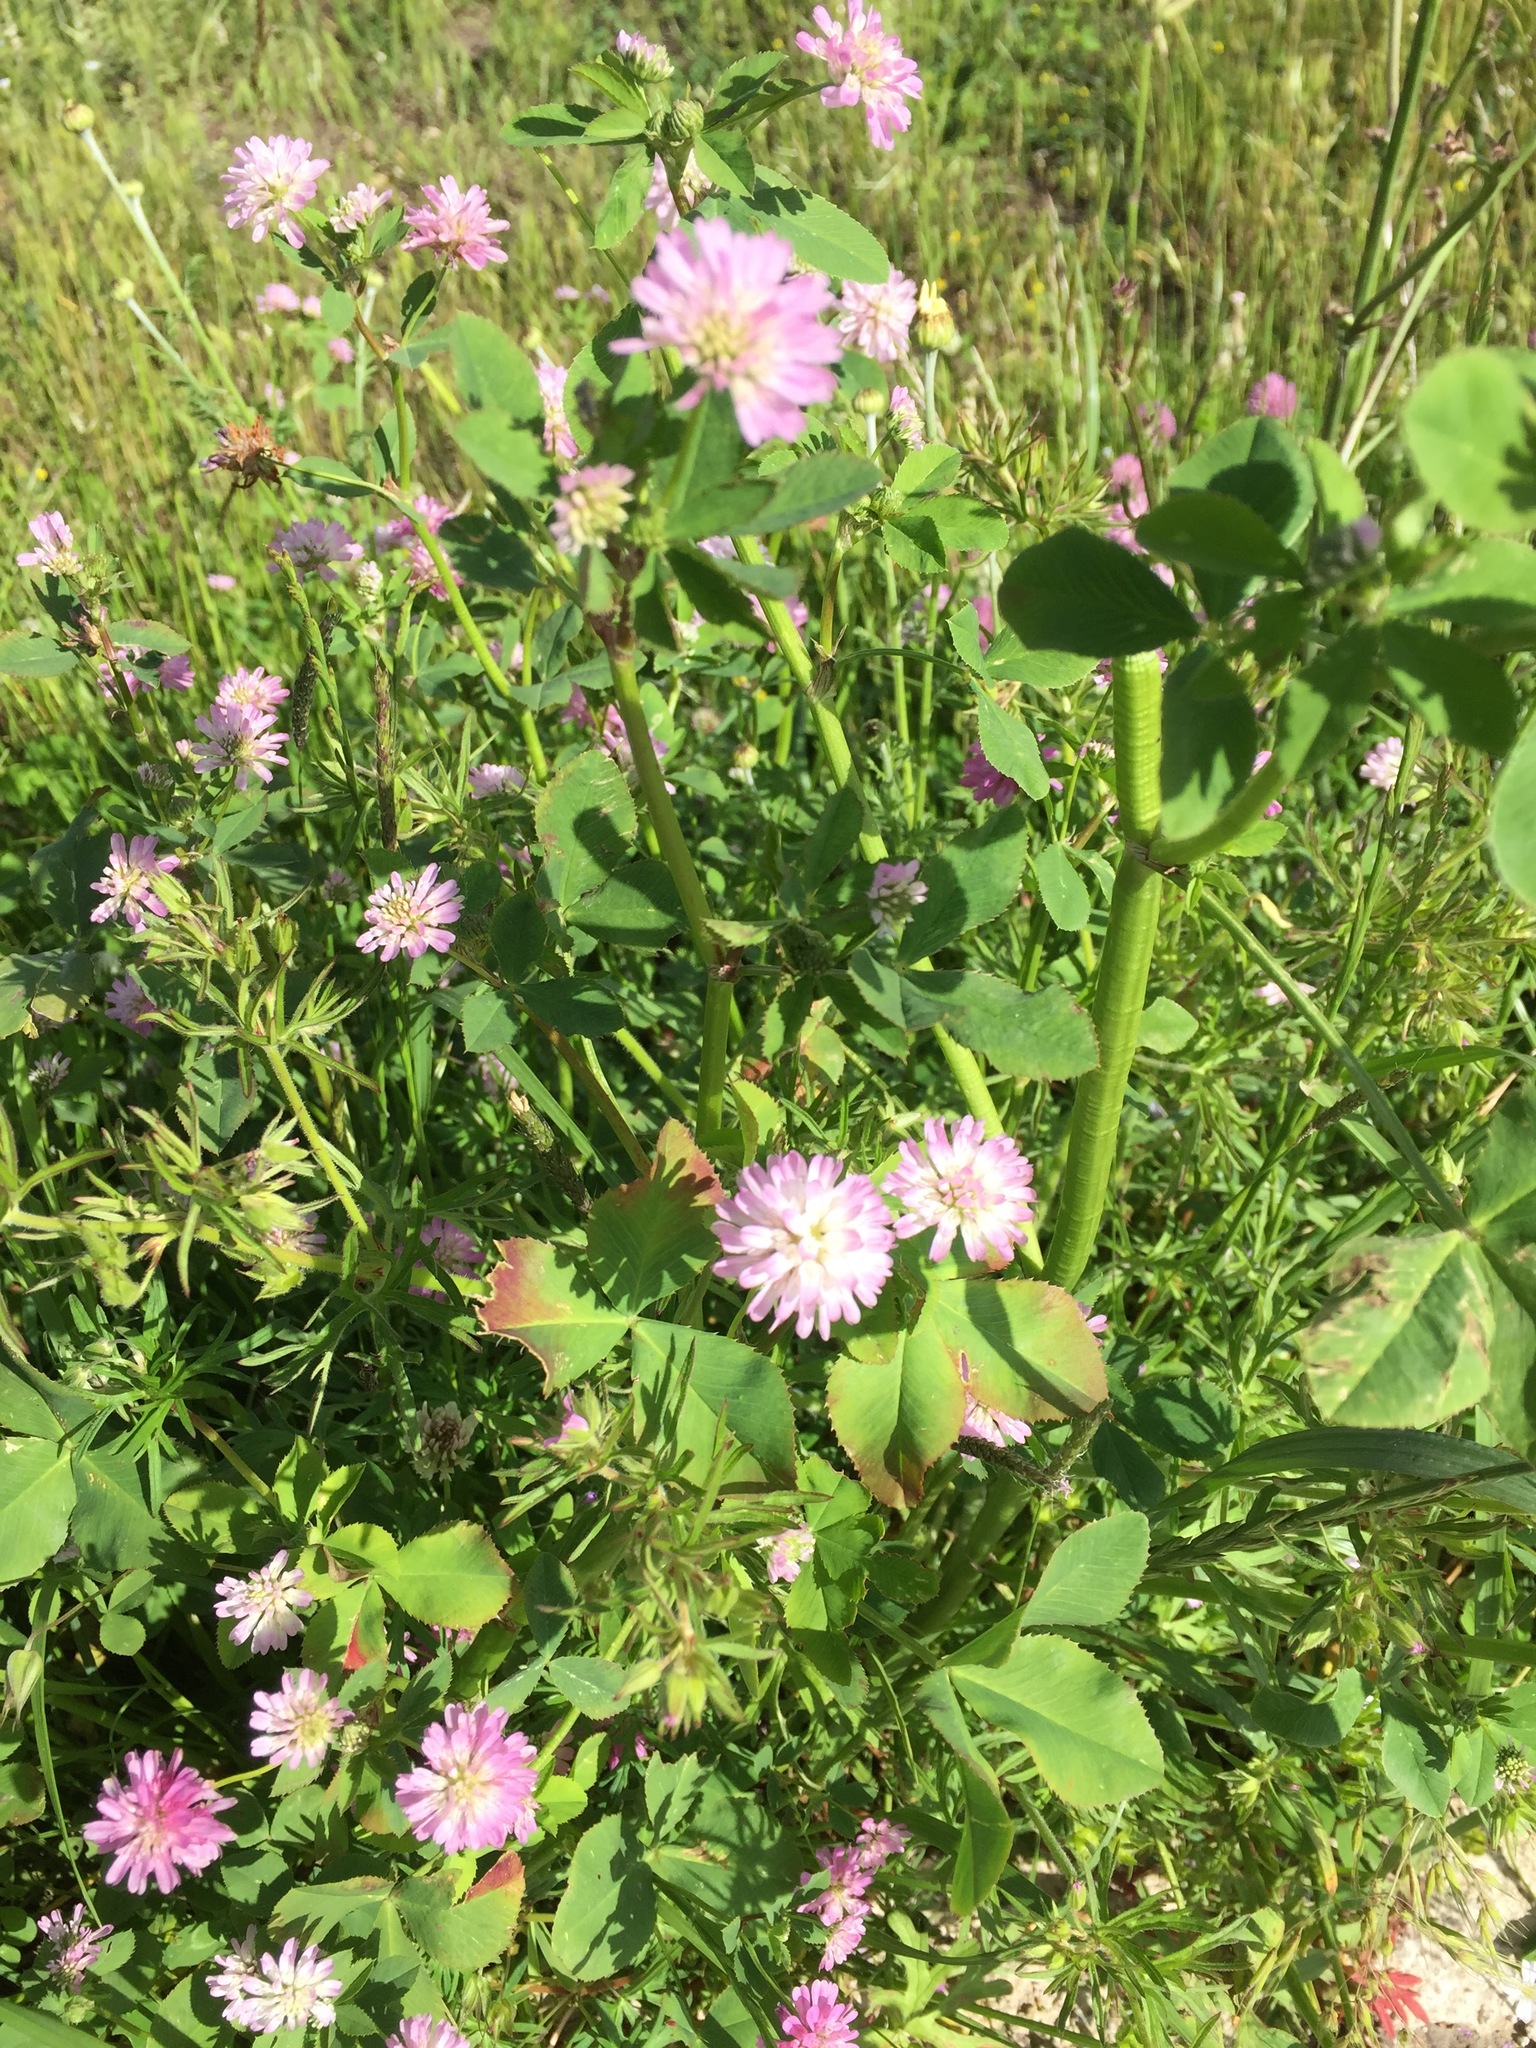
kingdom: Plantae
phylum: Tracheophyta
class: Magnoliopsida
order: Fabales
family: Fabaceae
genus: Trifolium
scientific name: Trifolium resupinatum
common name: Reversed clover
